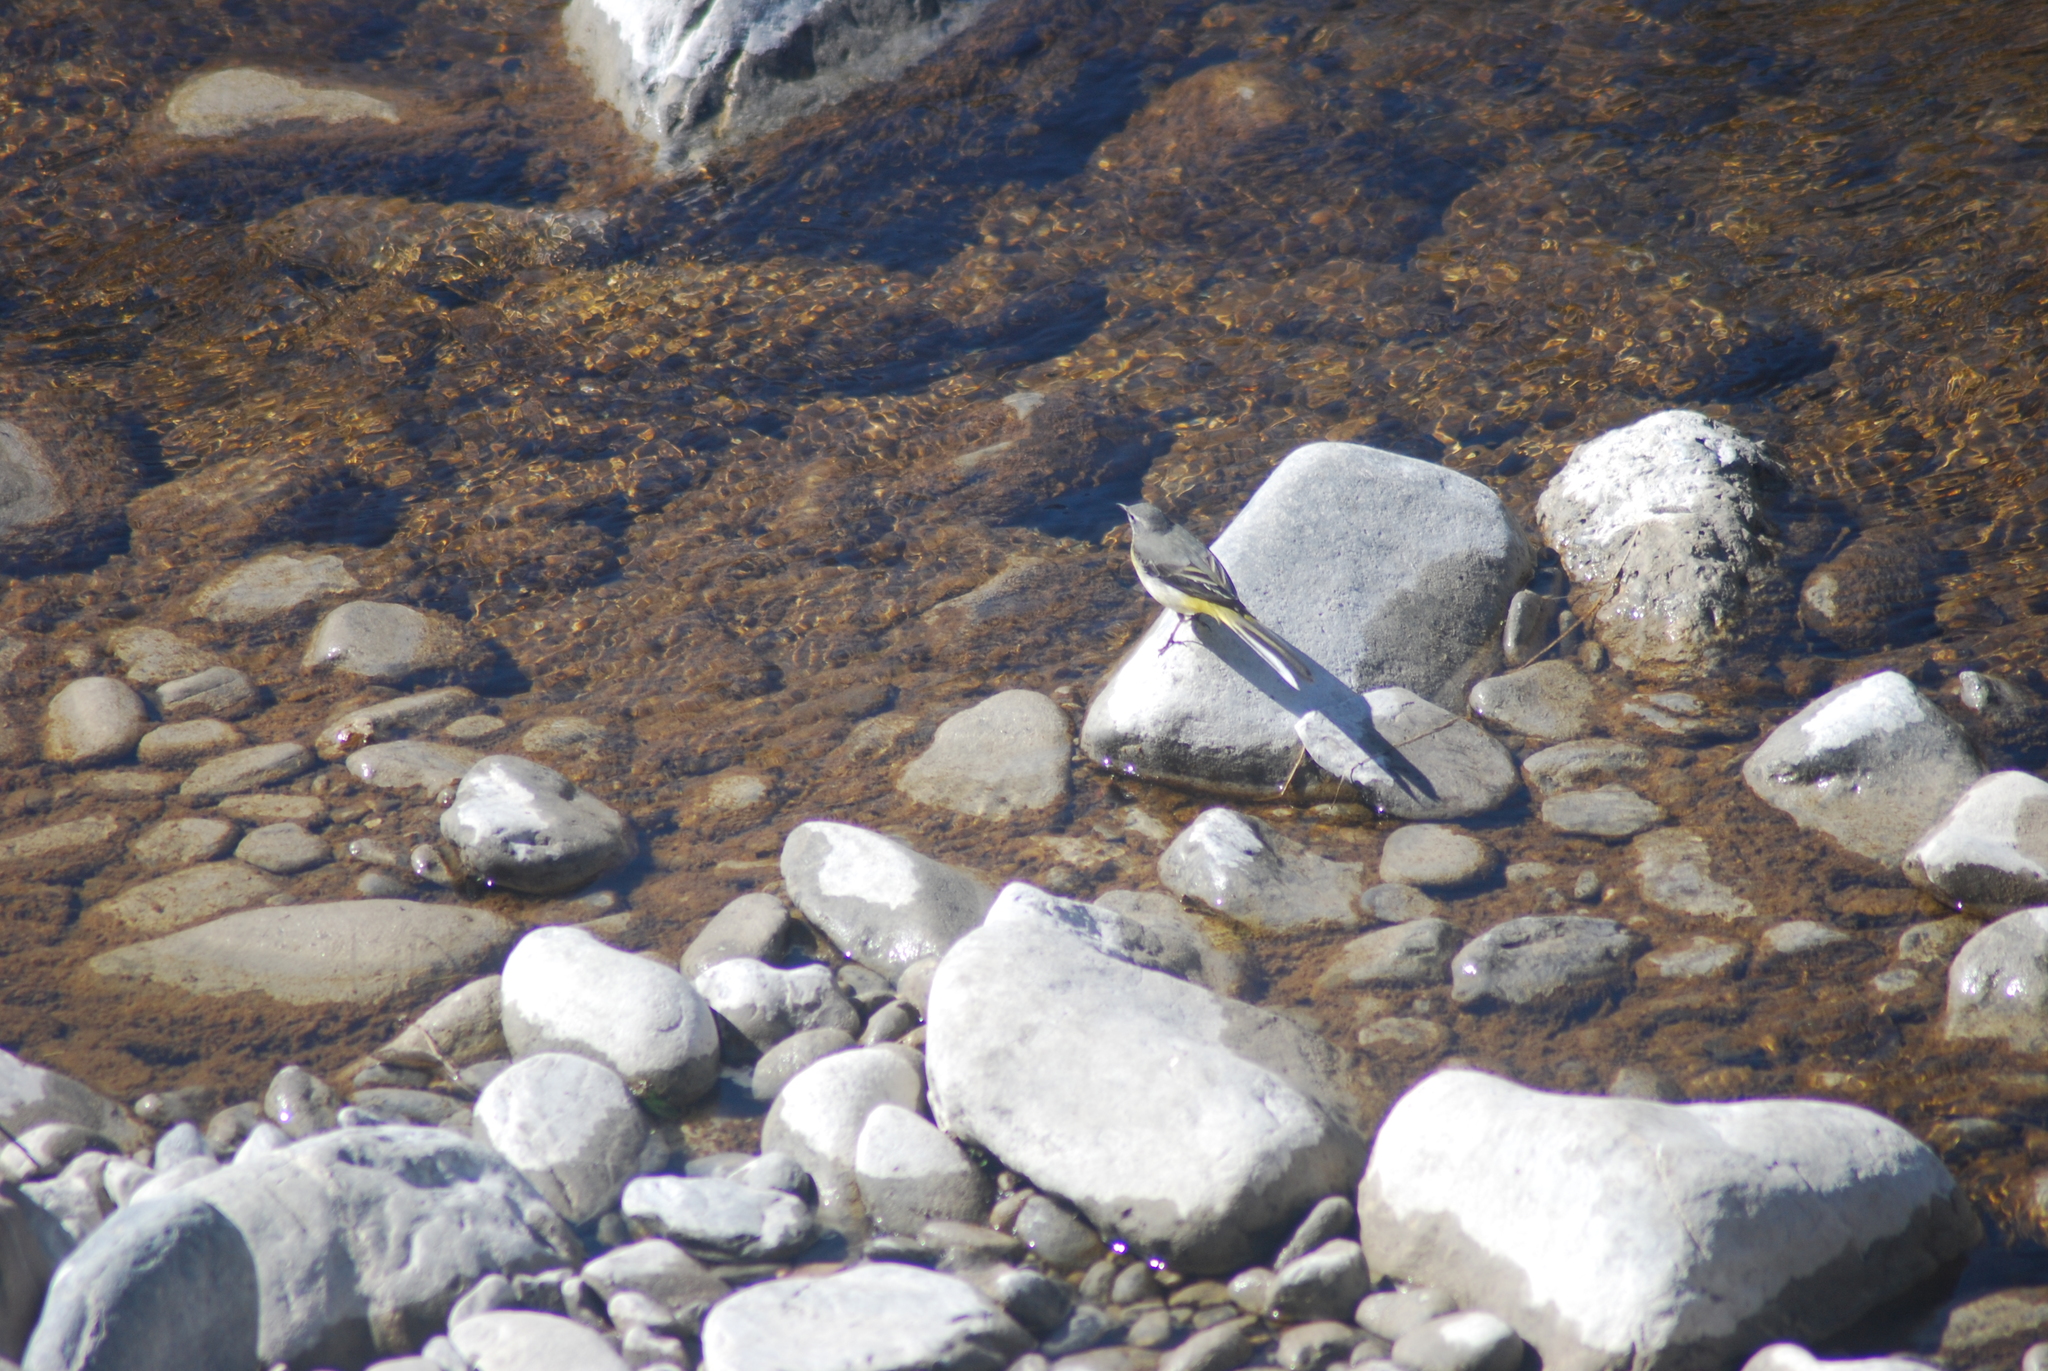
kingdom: Animalia
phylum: Chordata
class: Aves
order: Passeriformes
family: Motacillidae
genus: Motacilla
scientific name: Motacilla cinerea
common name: Grey wagtail
